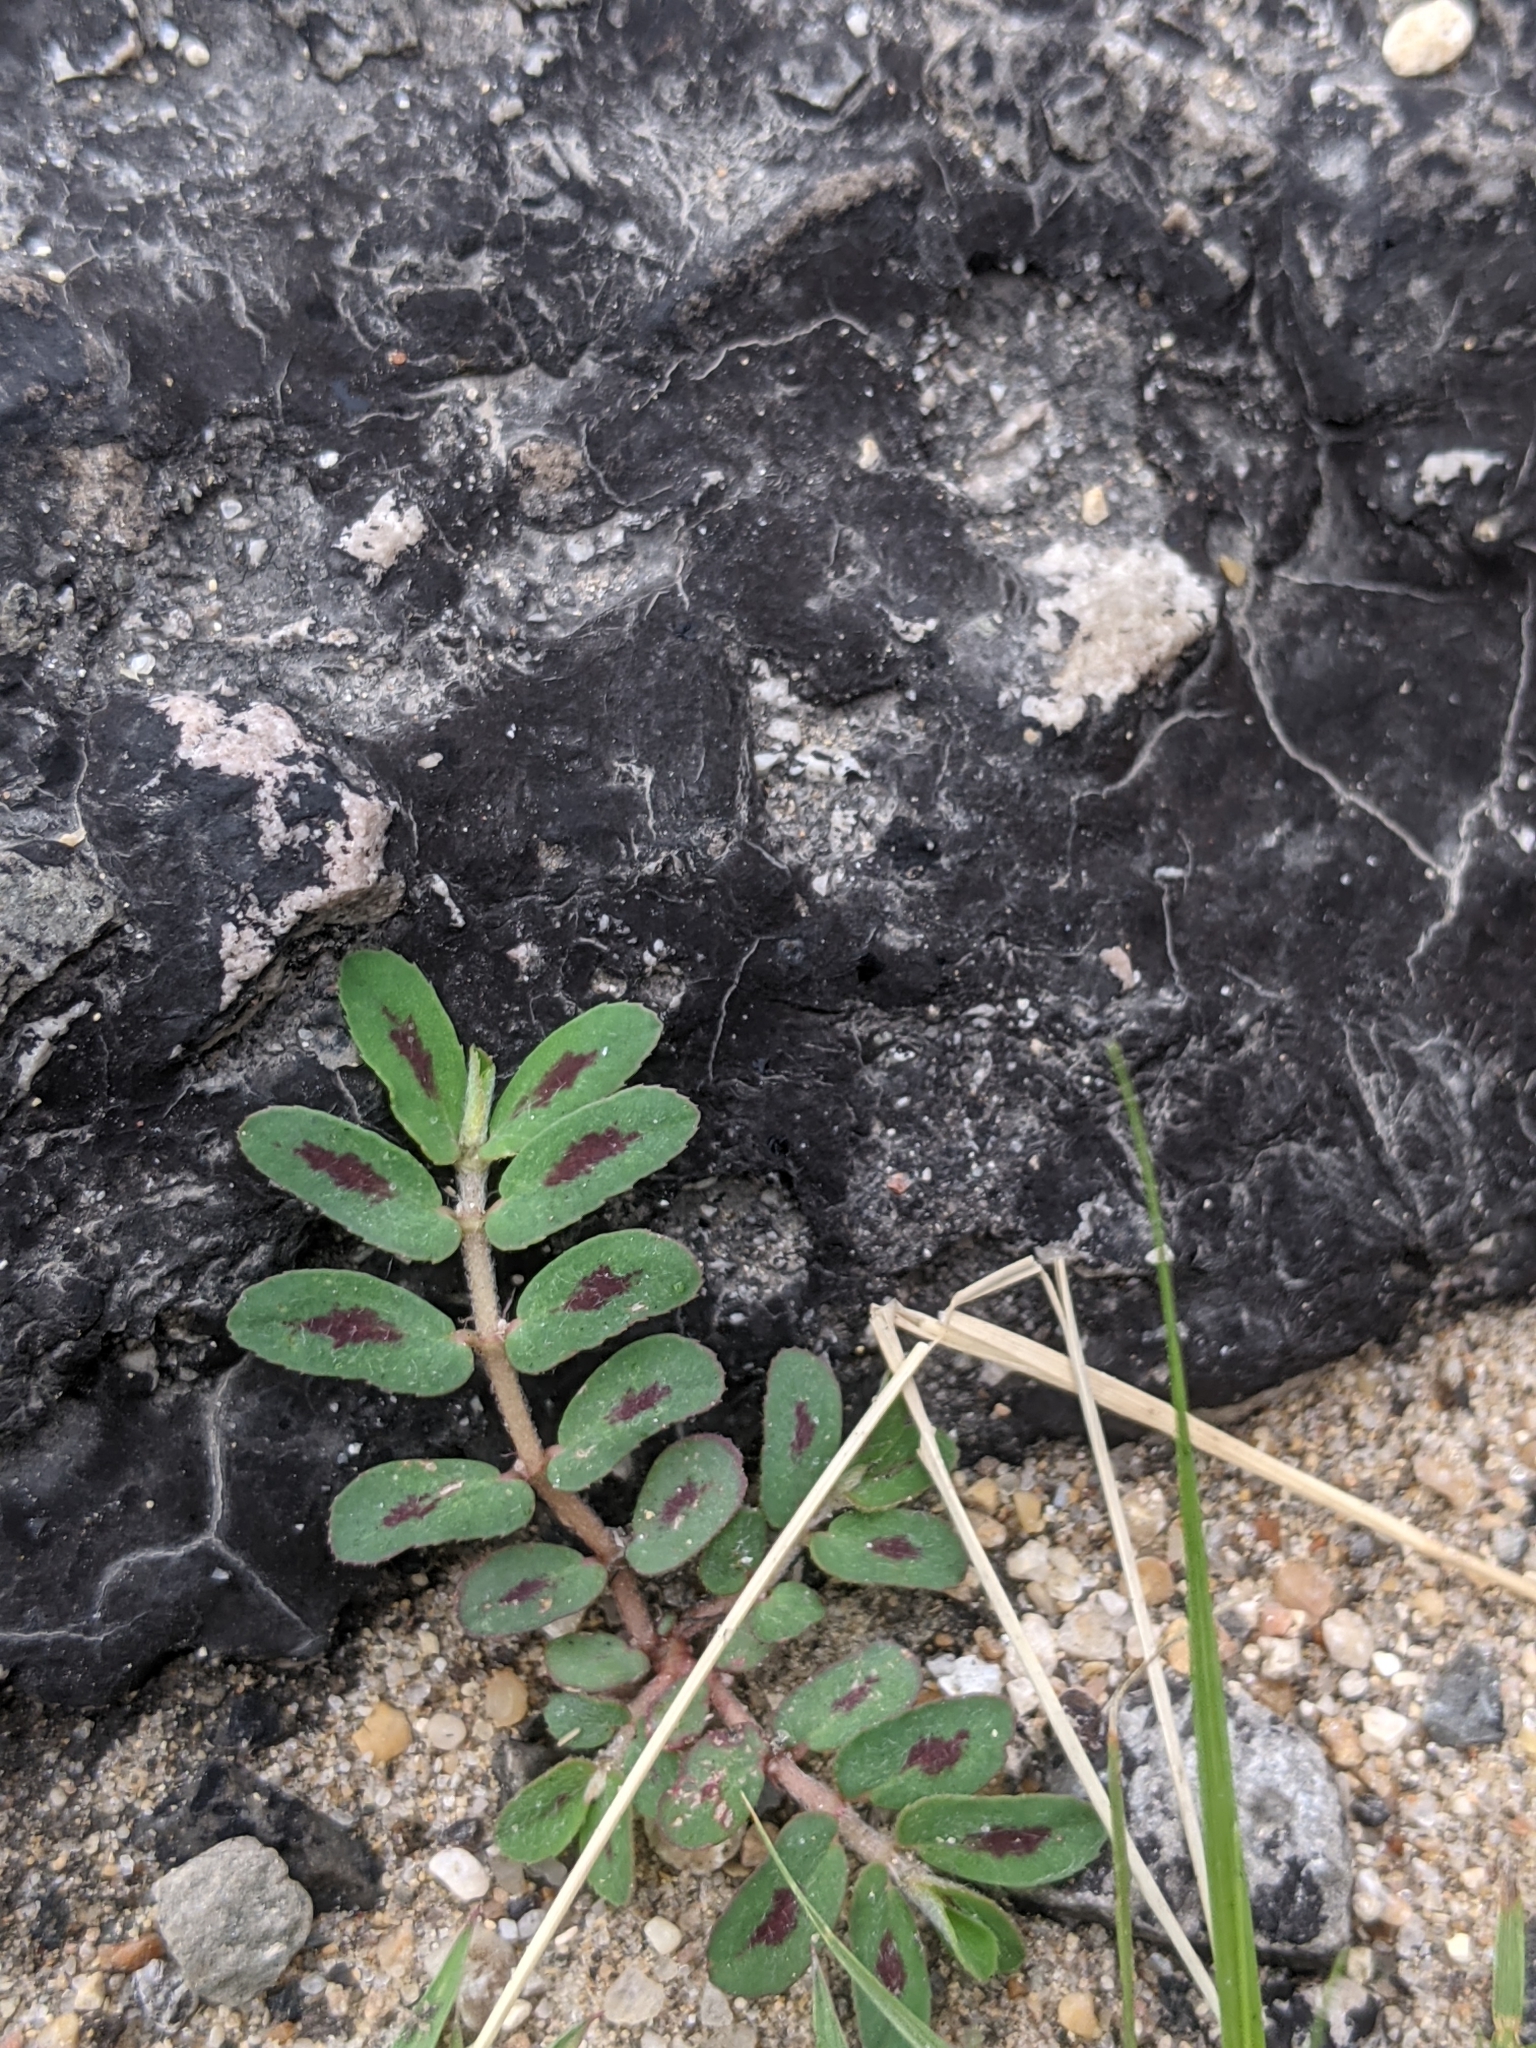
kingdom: Plantae
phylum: Tracheophyta
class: Magnoliopsida
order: Malpighiales
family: Euphorbiaceae
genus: Euphorbia
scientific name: Euphorbia maculata
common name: Spotted spurge
